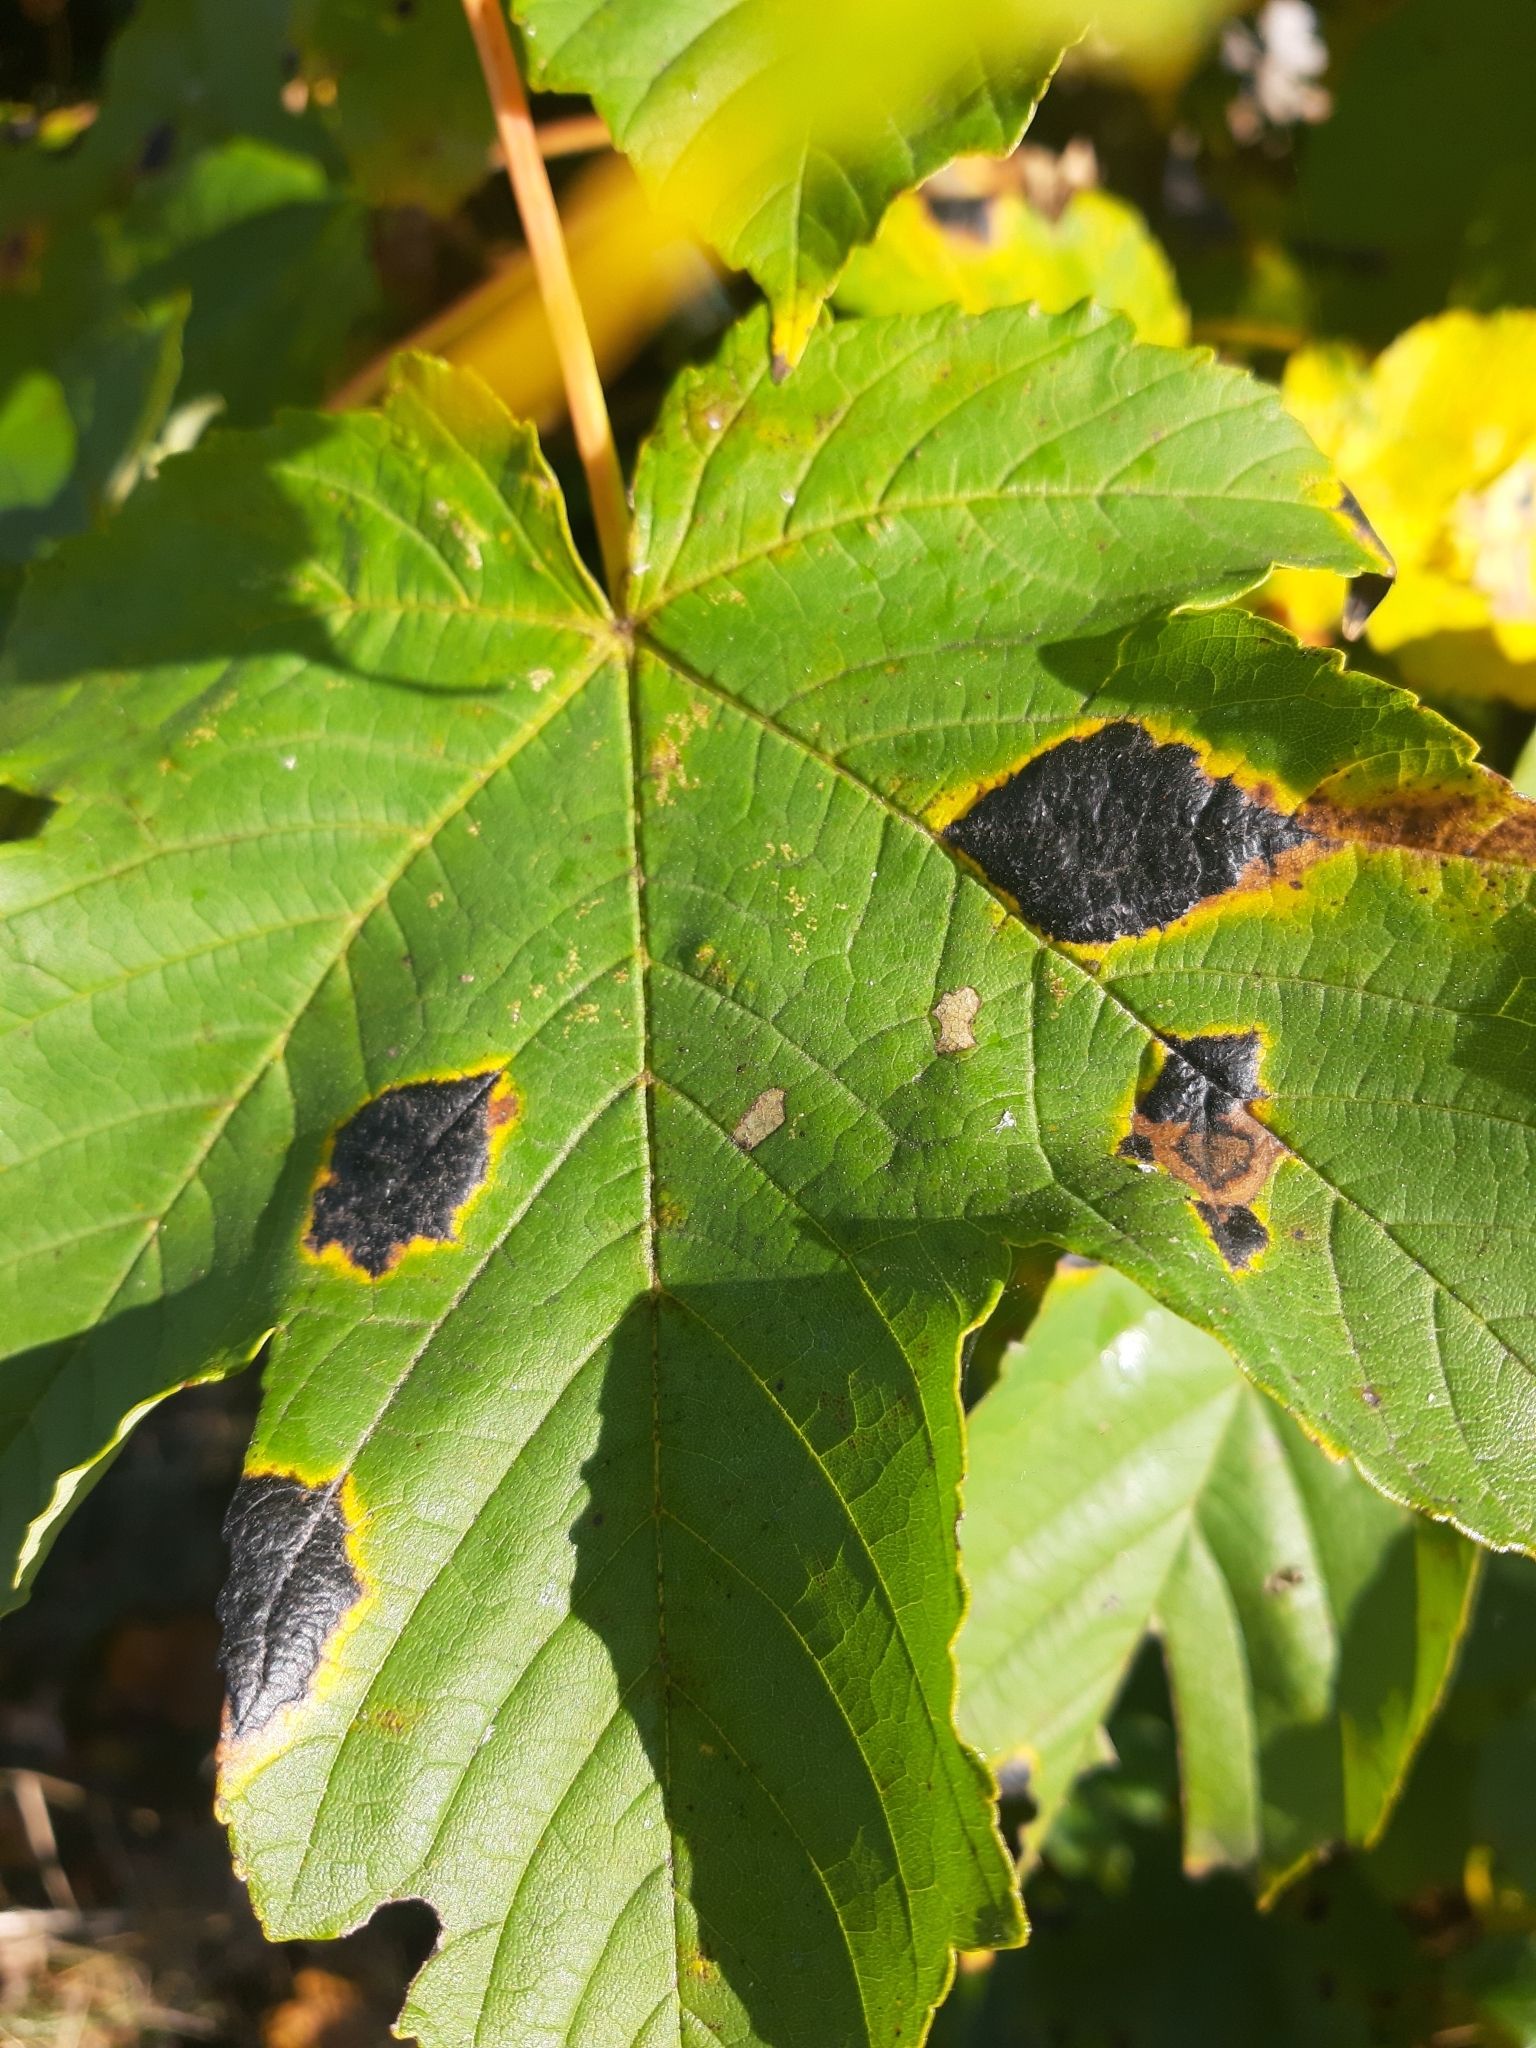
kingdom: Fungi
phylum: Ascomycota
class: Leotiomycetes
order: Rhytismatales
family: Rhytismataceae
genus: Rhytisma
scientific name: Rhytisma acerinum
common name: European tar spot
